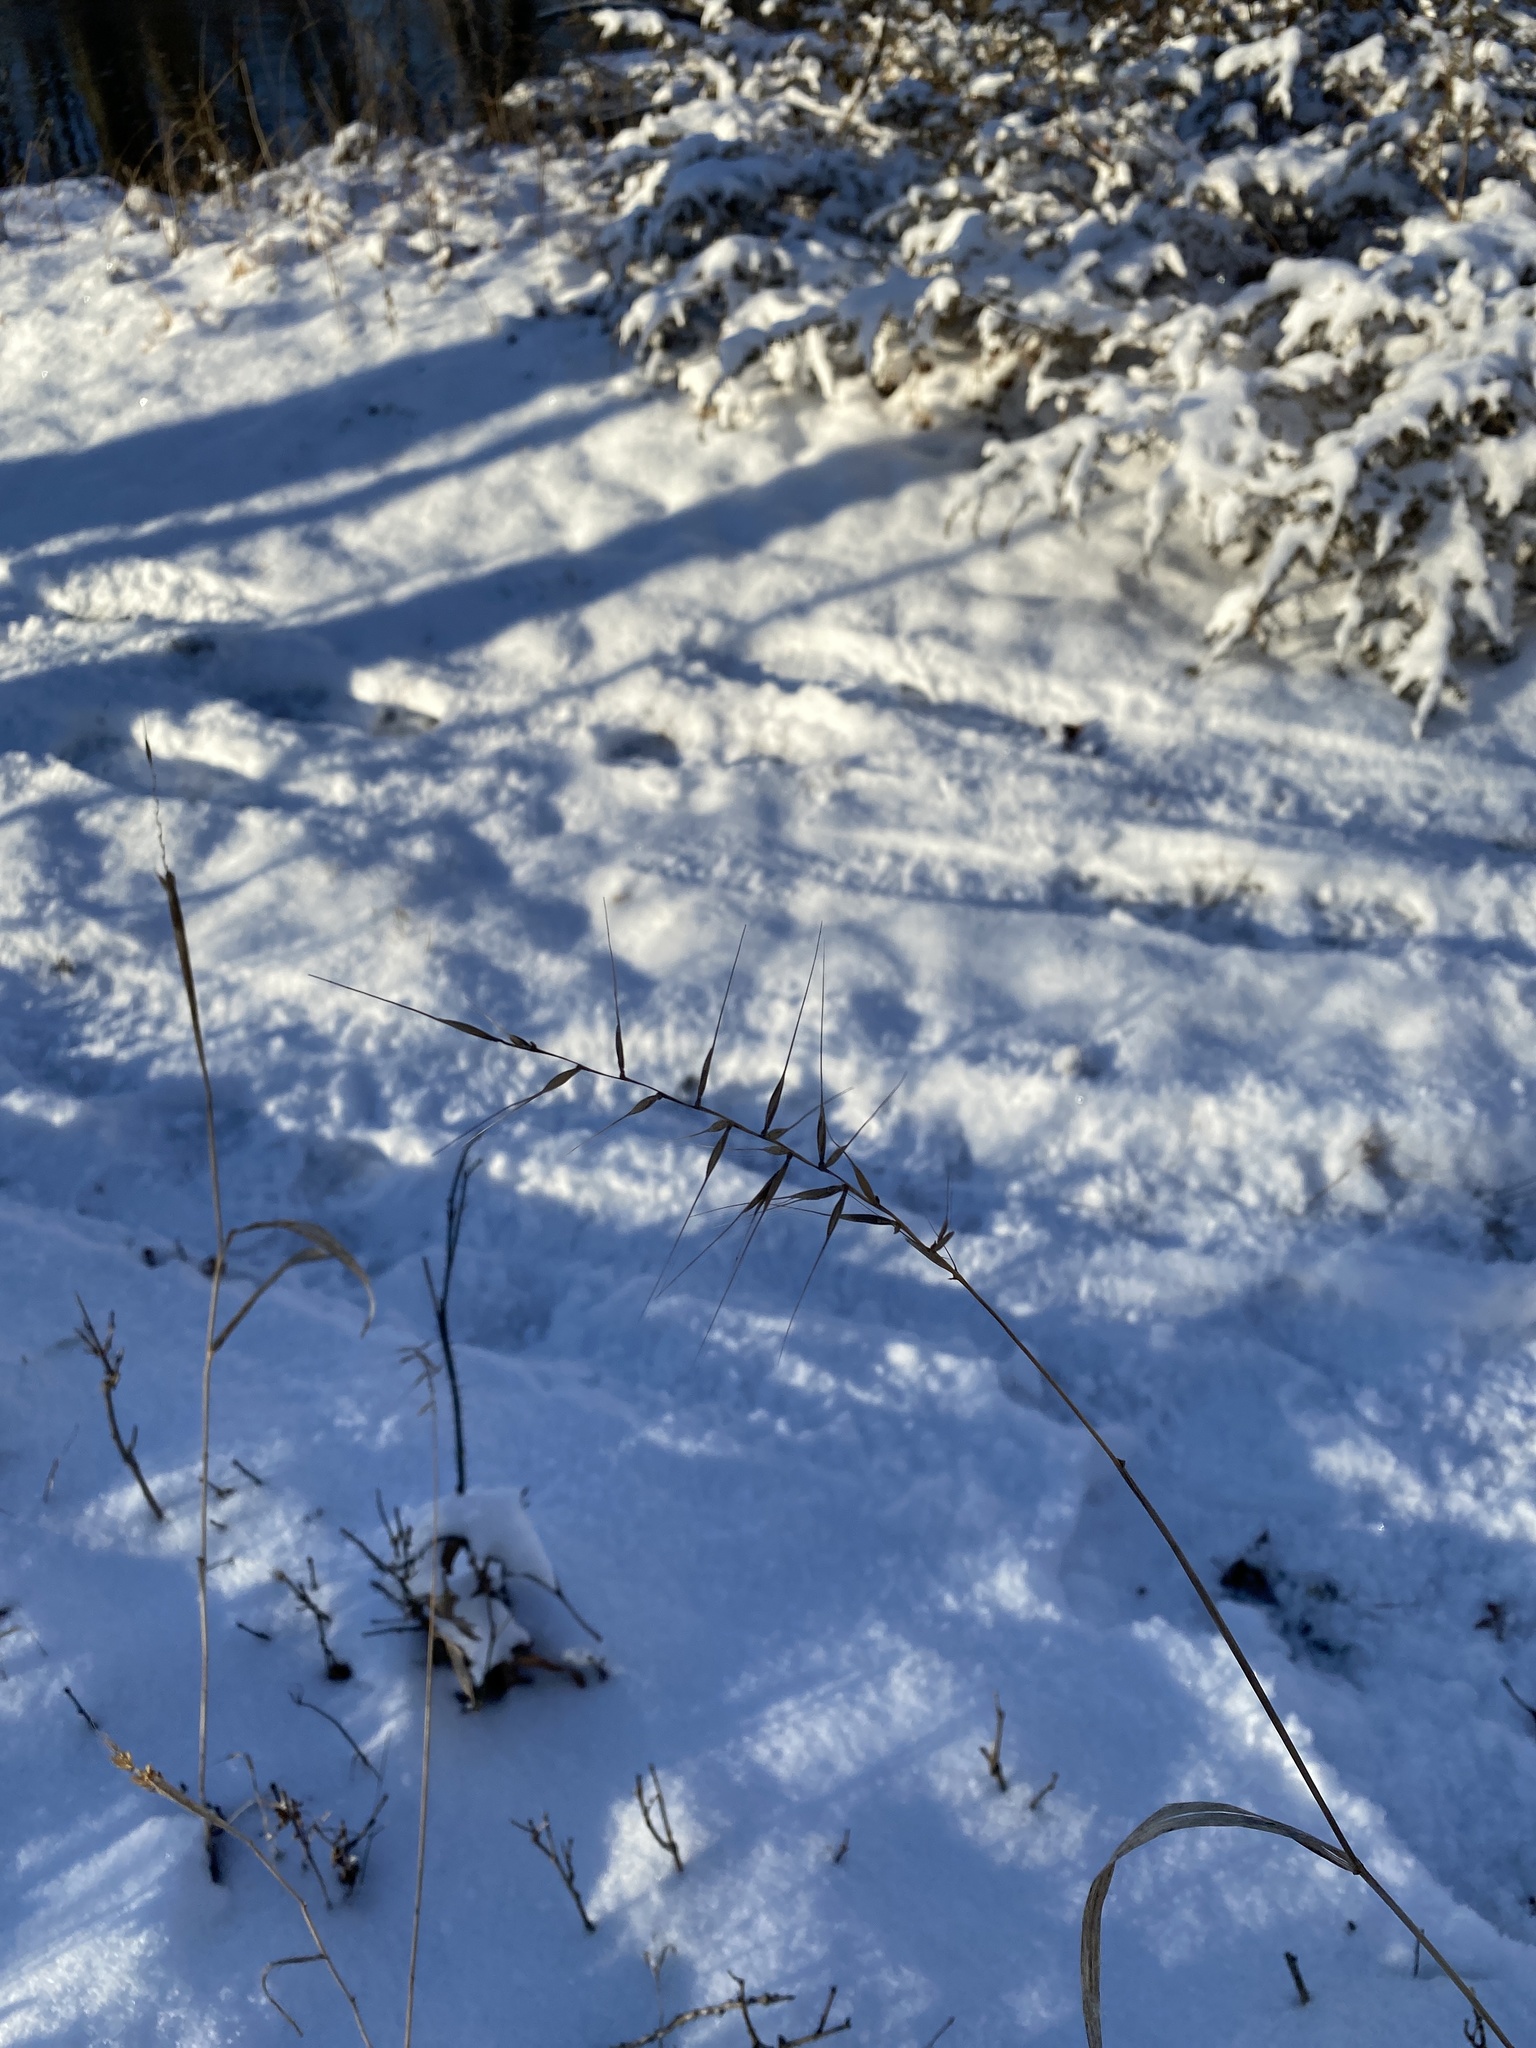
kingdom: Plantae
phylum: Tracheophyta
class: Liliopsida
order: Poales
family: Poaceae
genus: Elymus
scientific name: Elymus hystrix
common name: Bottlebrush grass
